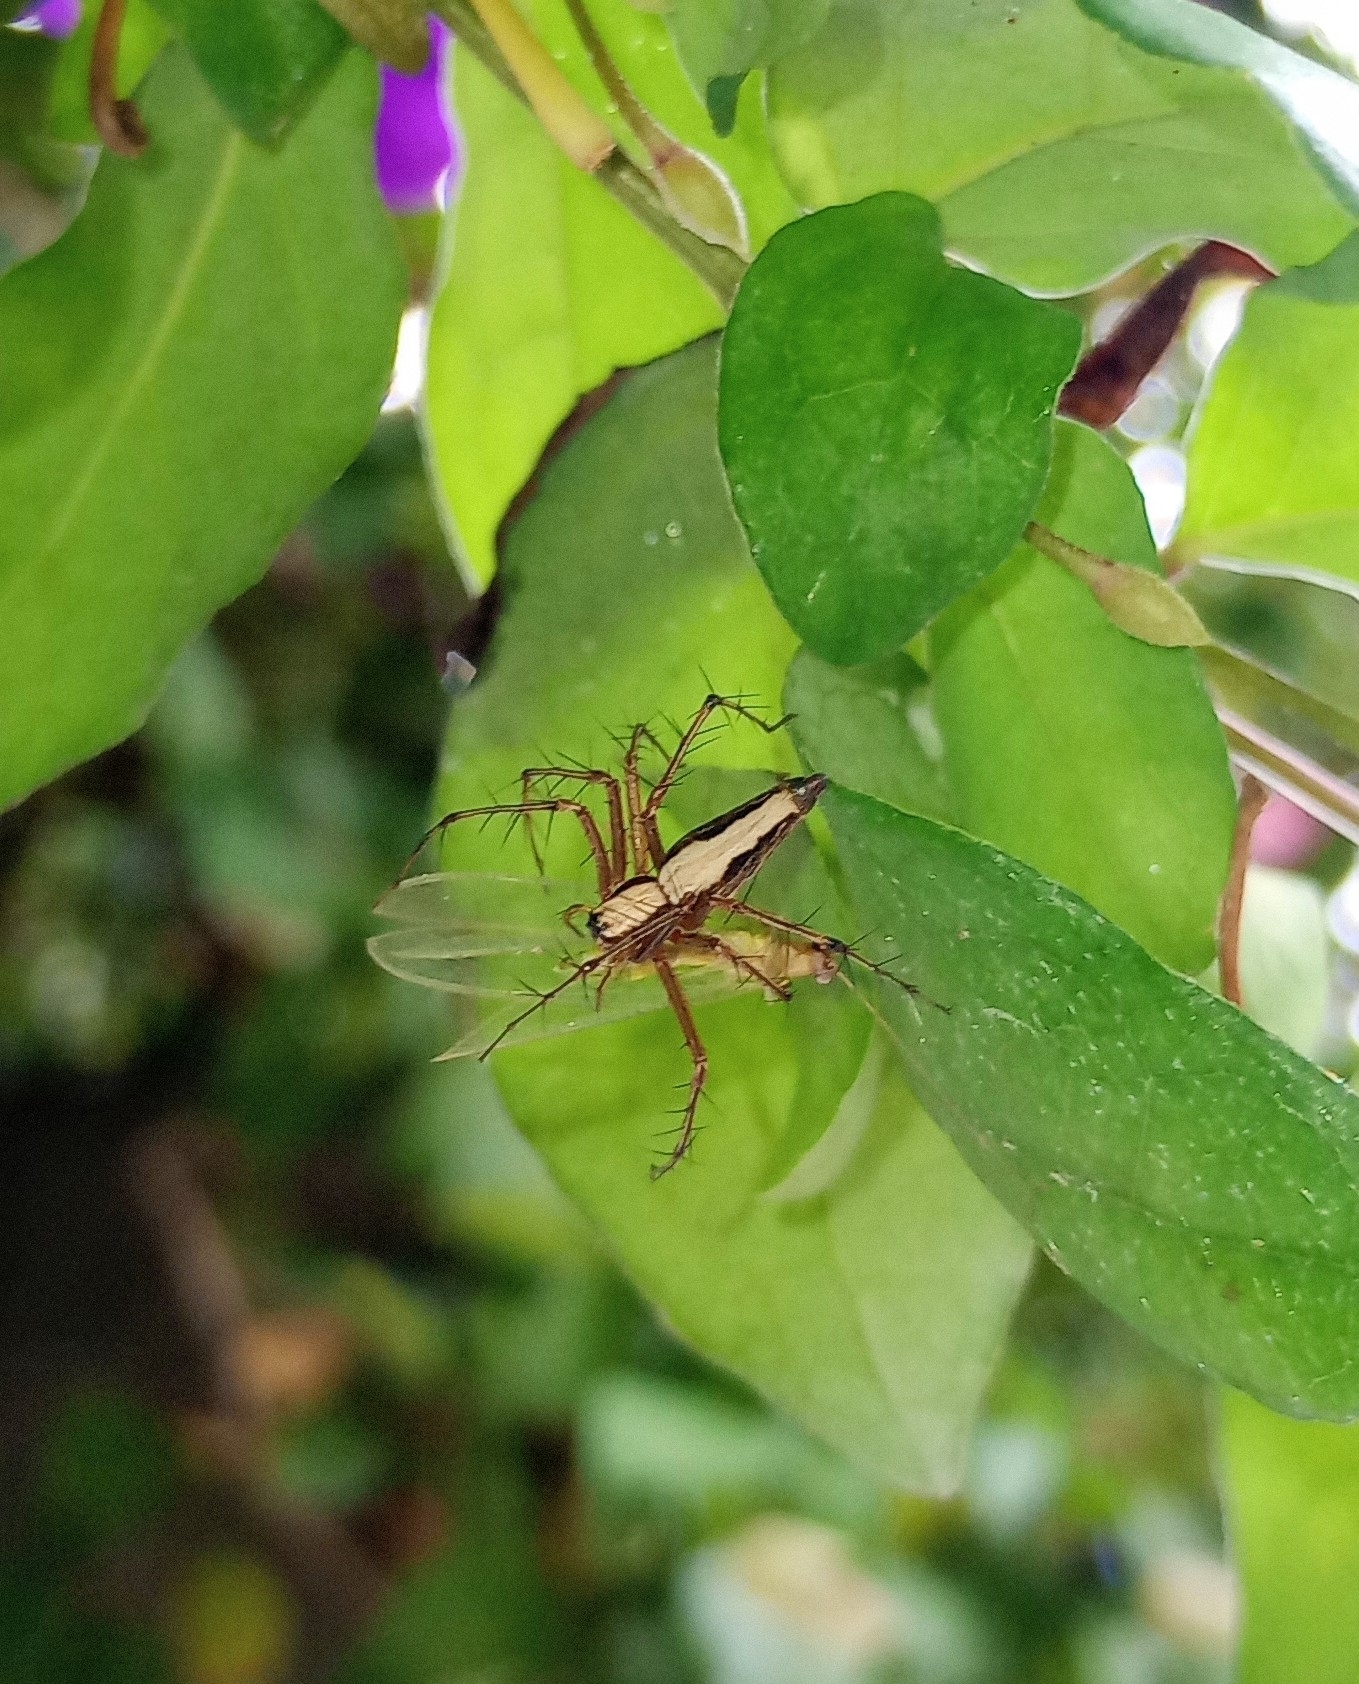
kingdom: Animalia
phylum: Arthropoda
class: Arachnida
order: Araneae
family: Oxyopidae
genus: Oxyopes
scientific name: Oxyopes shweta
